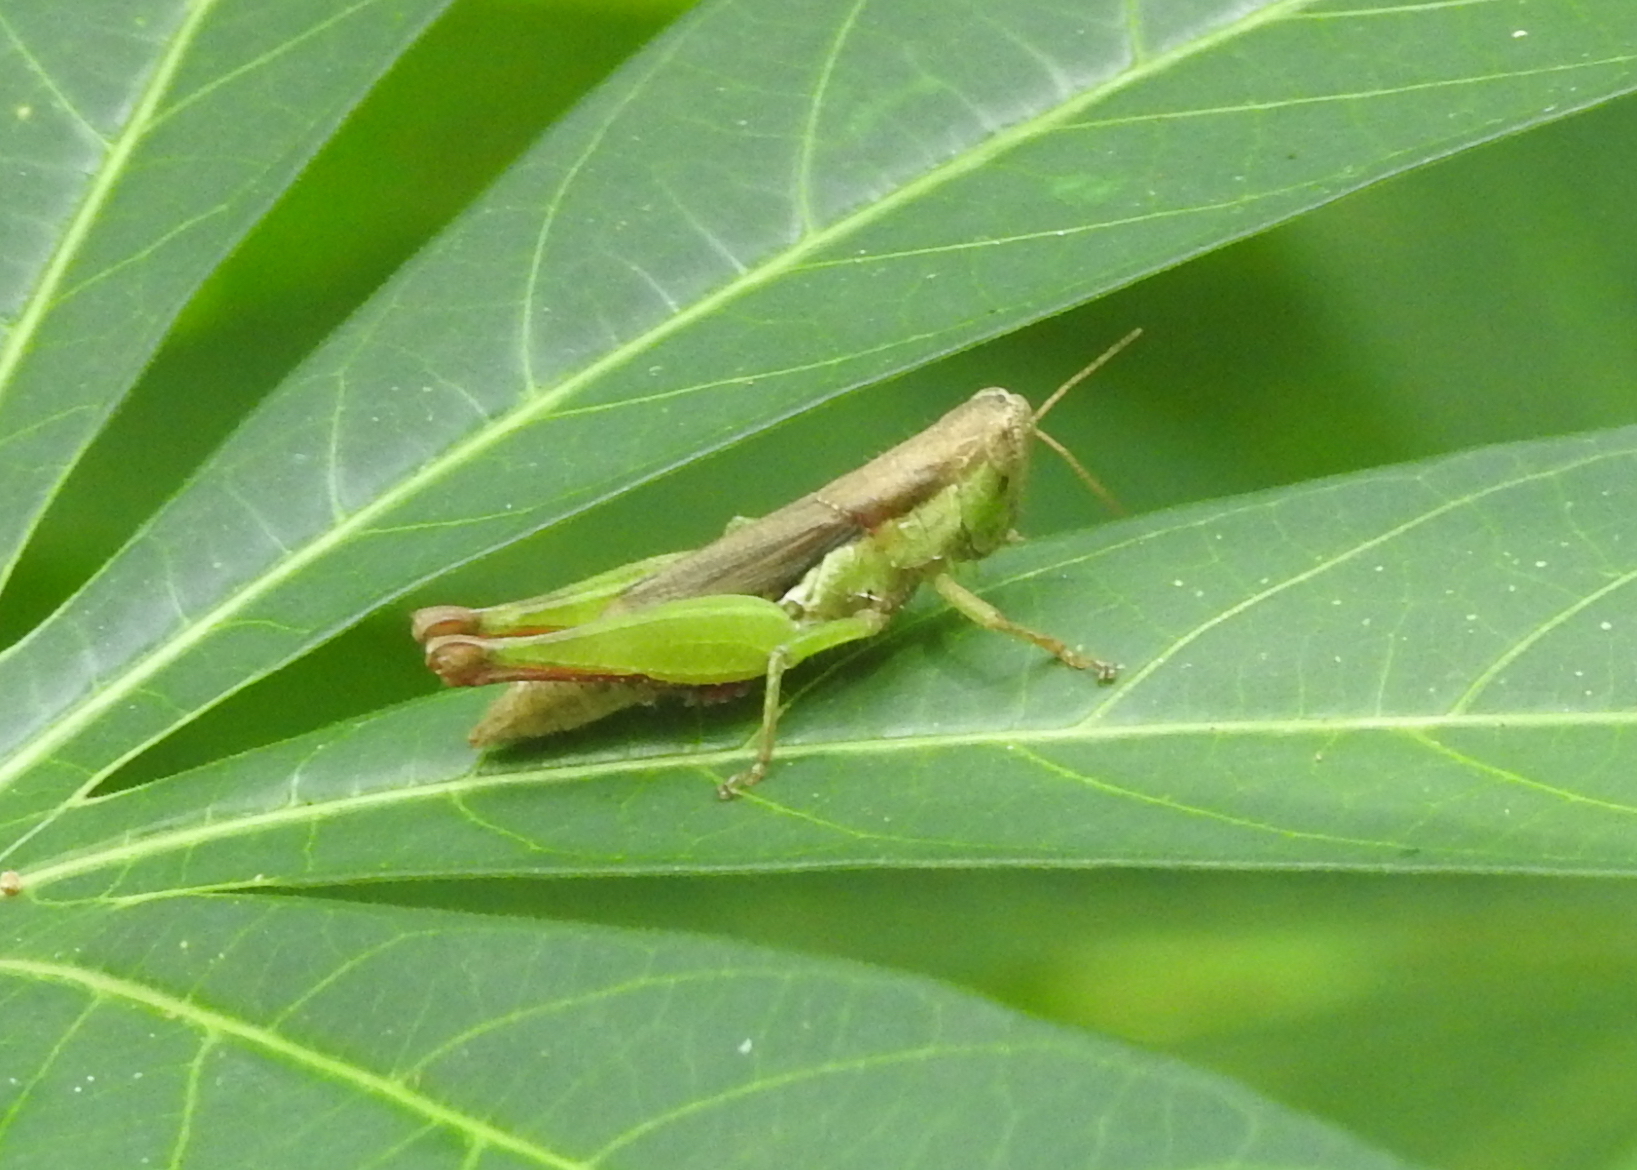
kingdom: Animalia
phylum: Arthropoda
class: Insecta
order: Orthoptera
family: Acrididae
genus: Pseudoxya
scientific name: Pseudoxya diminuta
